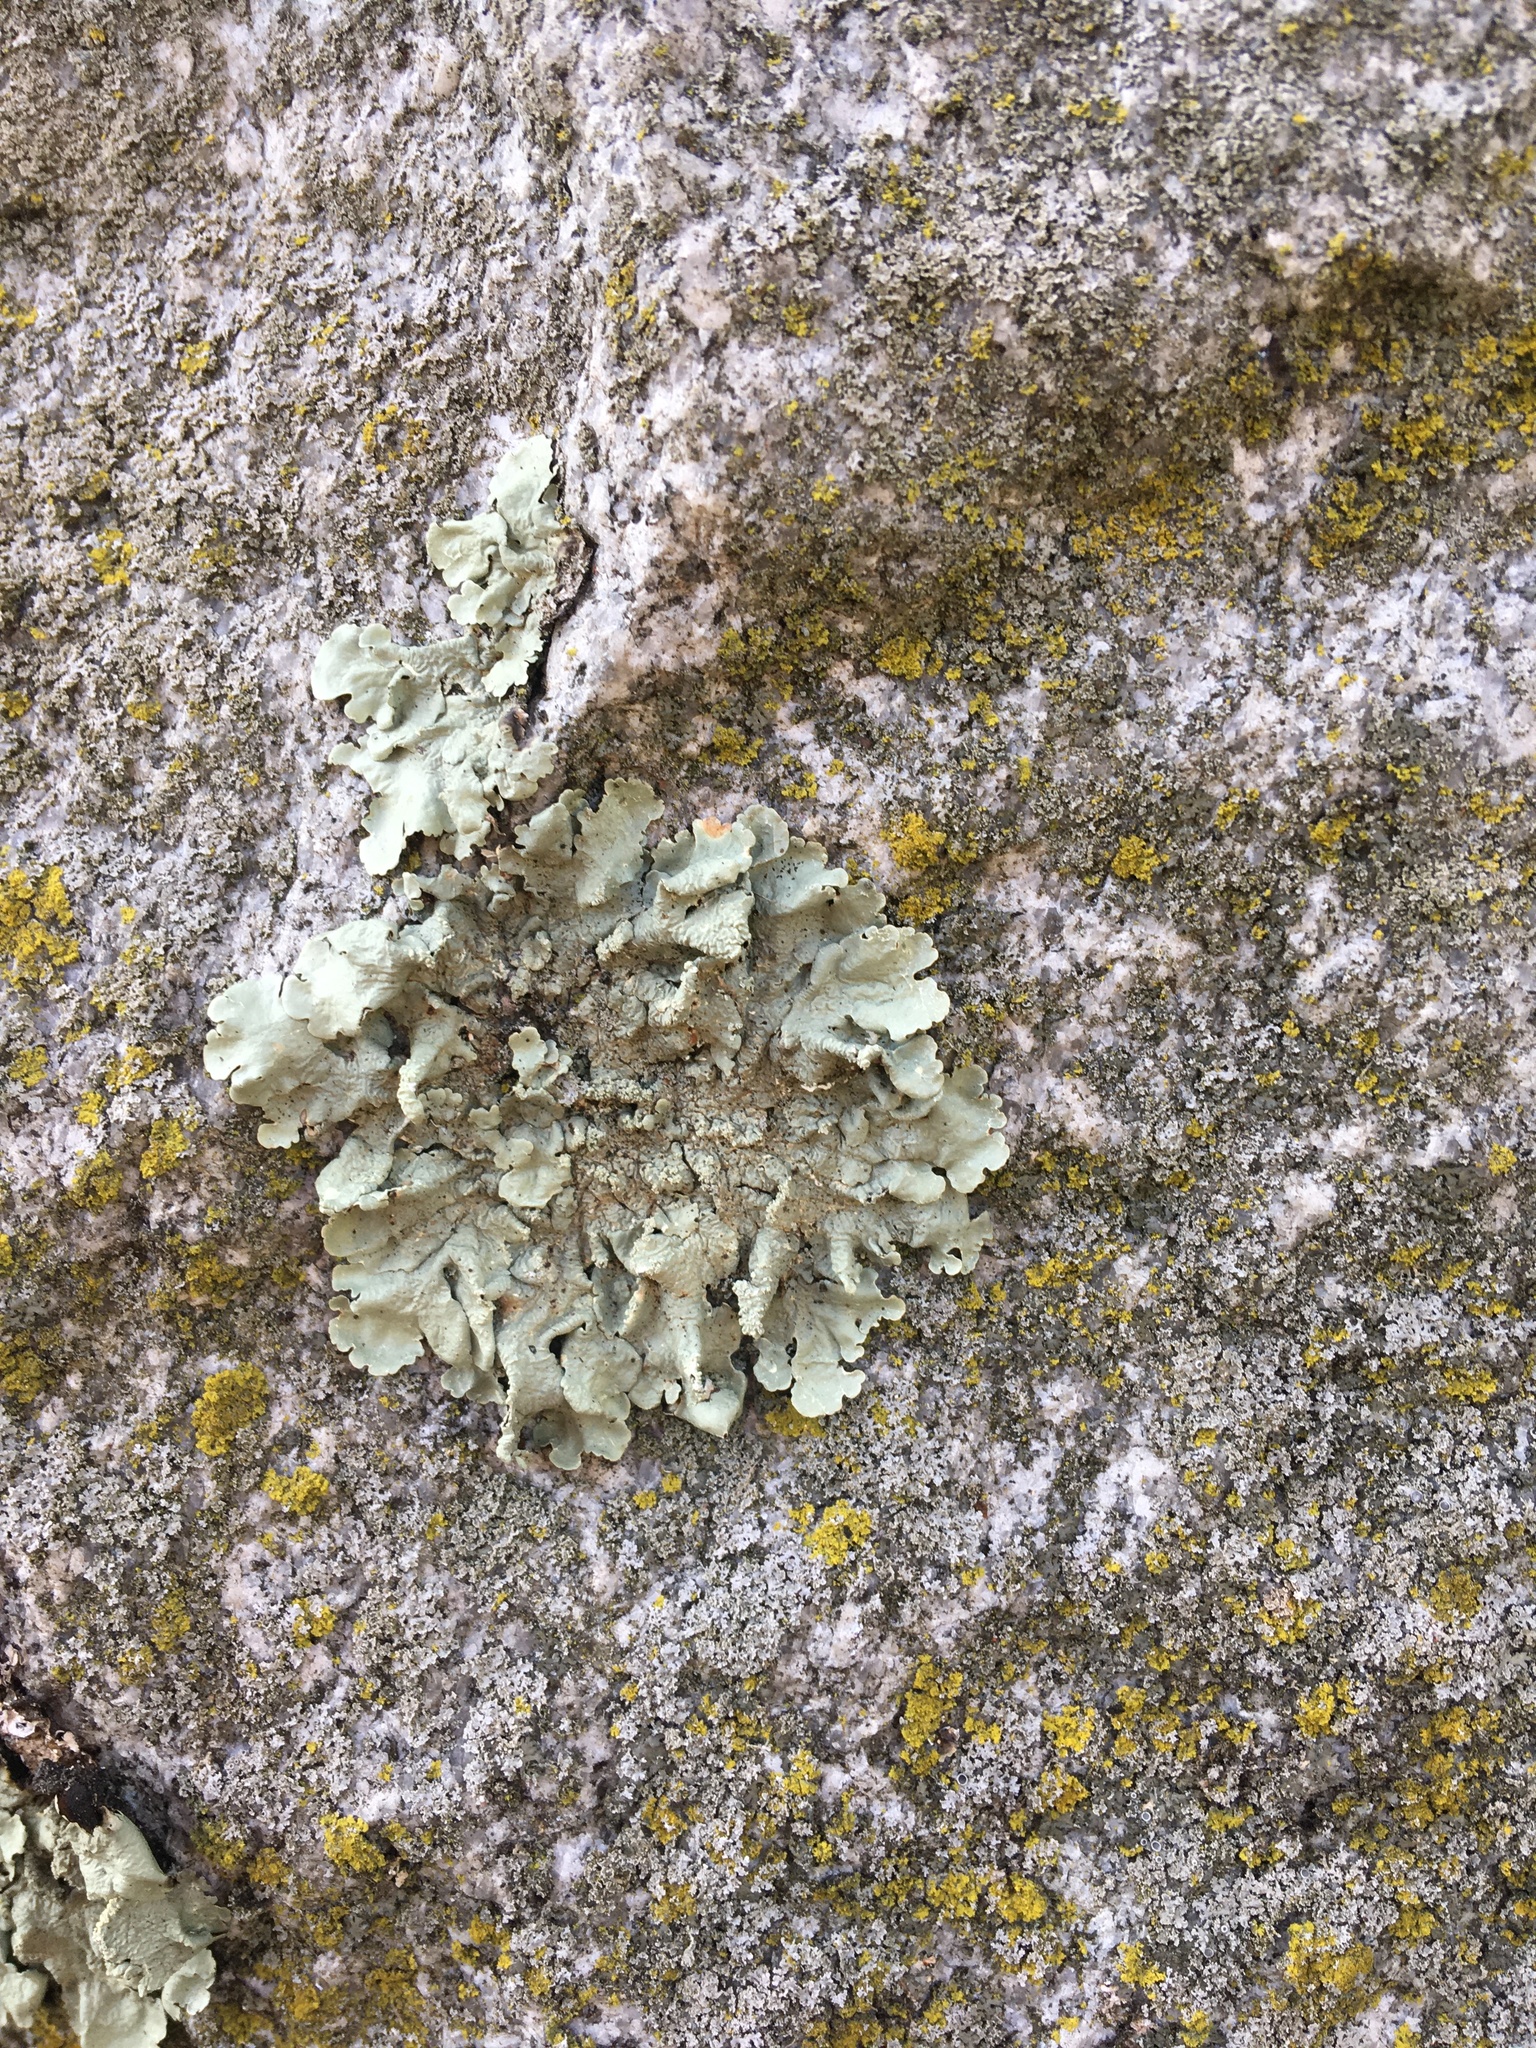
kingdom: Fungi
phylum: Ascomycota
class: Lecanoromycetes
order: Lecanorales
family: Parmeliaceae
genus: Flavoparmelia
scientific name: Flavoparmelia caperata
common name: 40-mile per hour lichen
